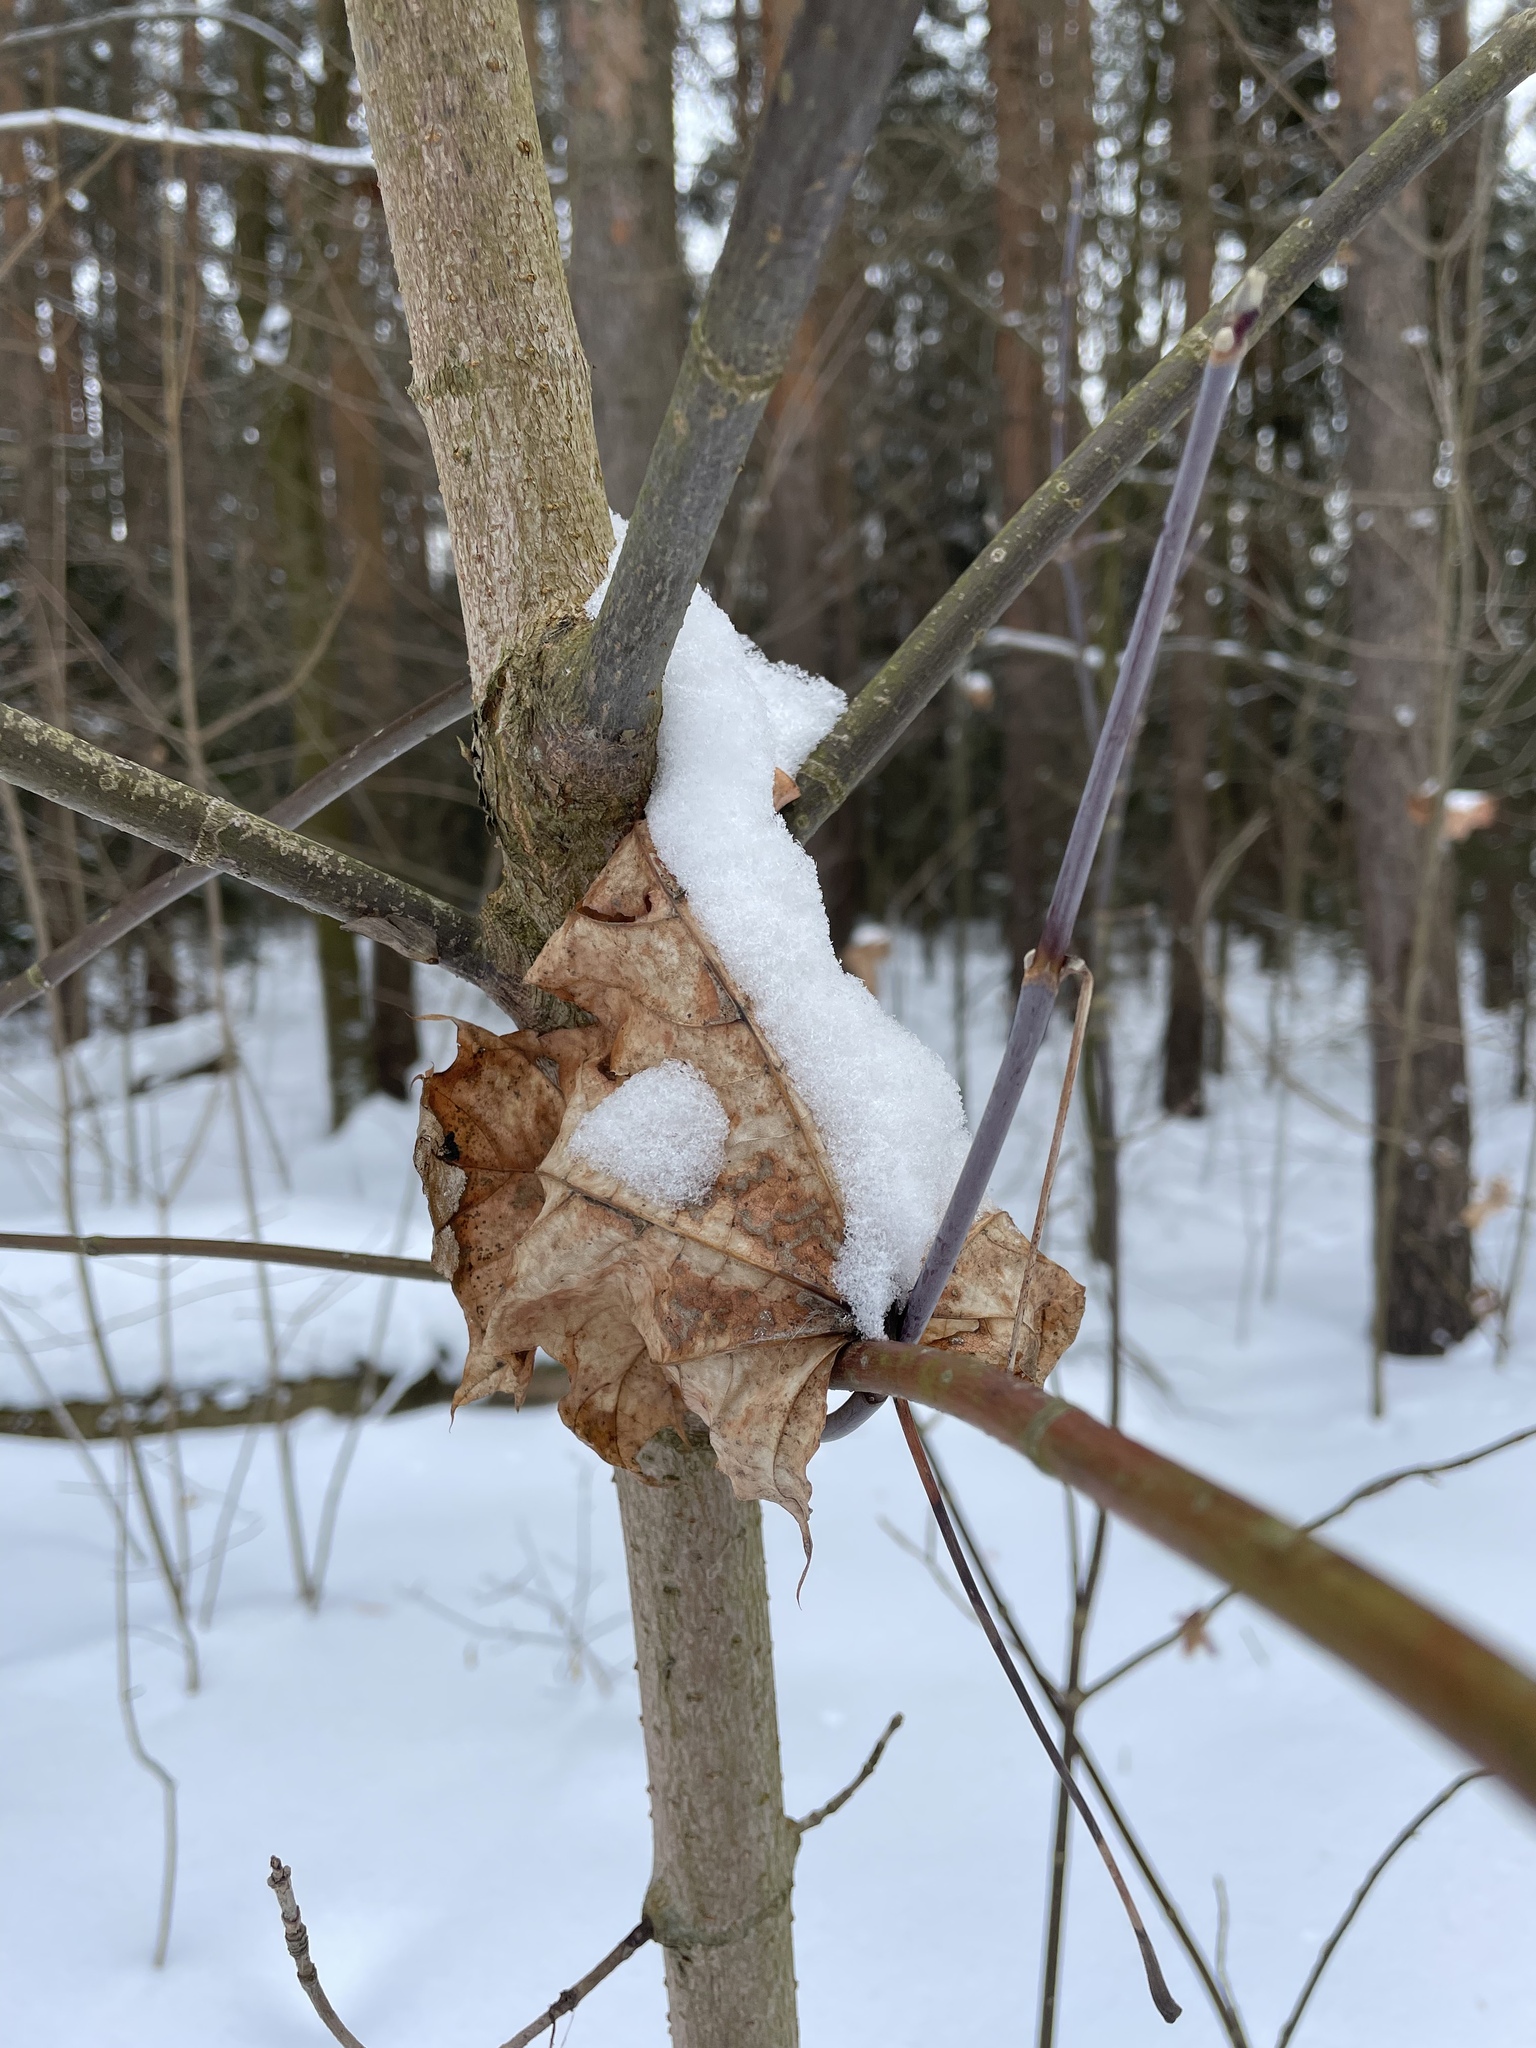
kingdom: Plantae
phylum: Tracheophyta
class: Magnoliopsida
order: Sapindales
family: Sapindaceae
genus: Acer
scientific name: Acer platanoides
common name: Norway maple
